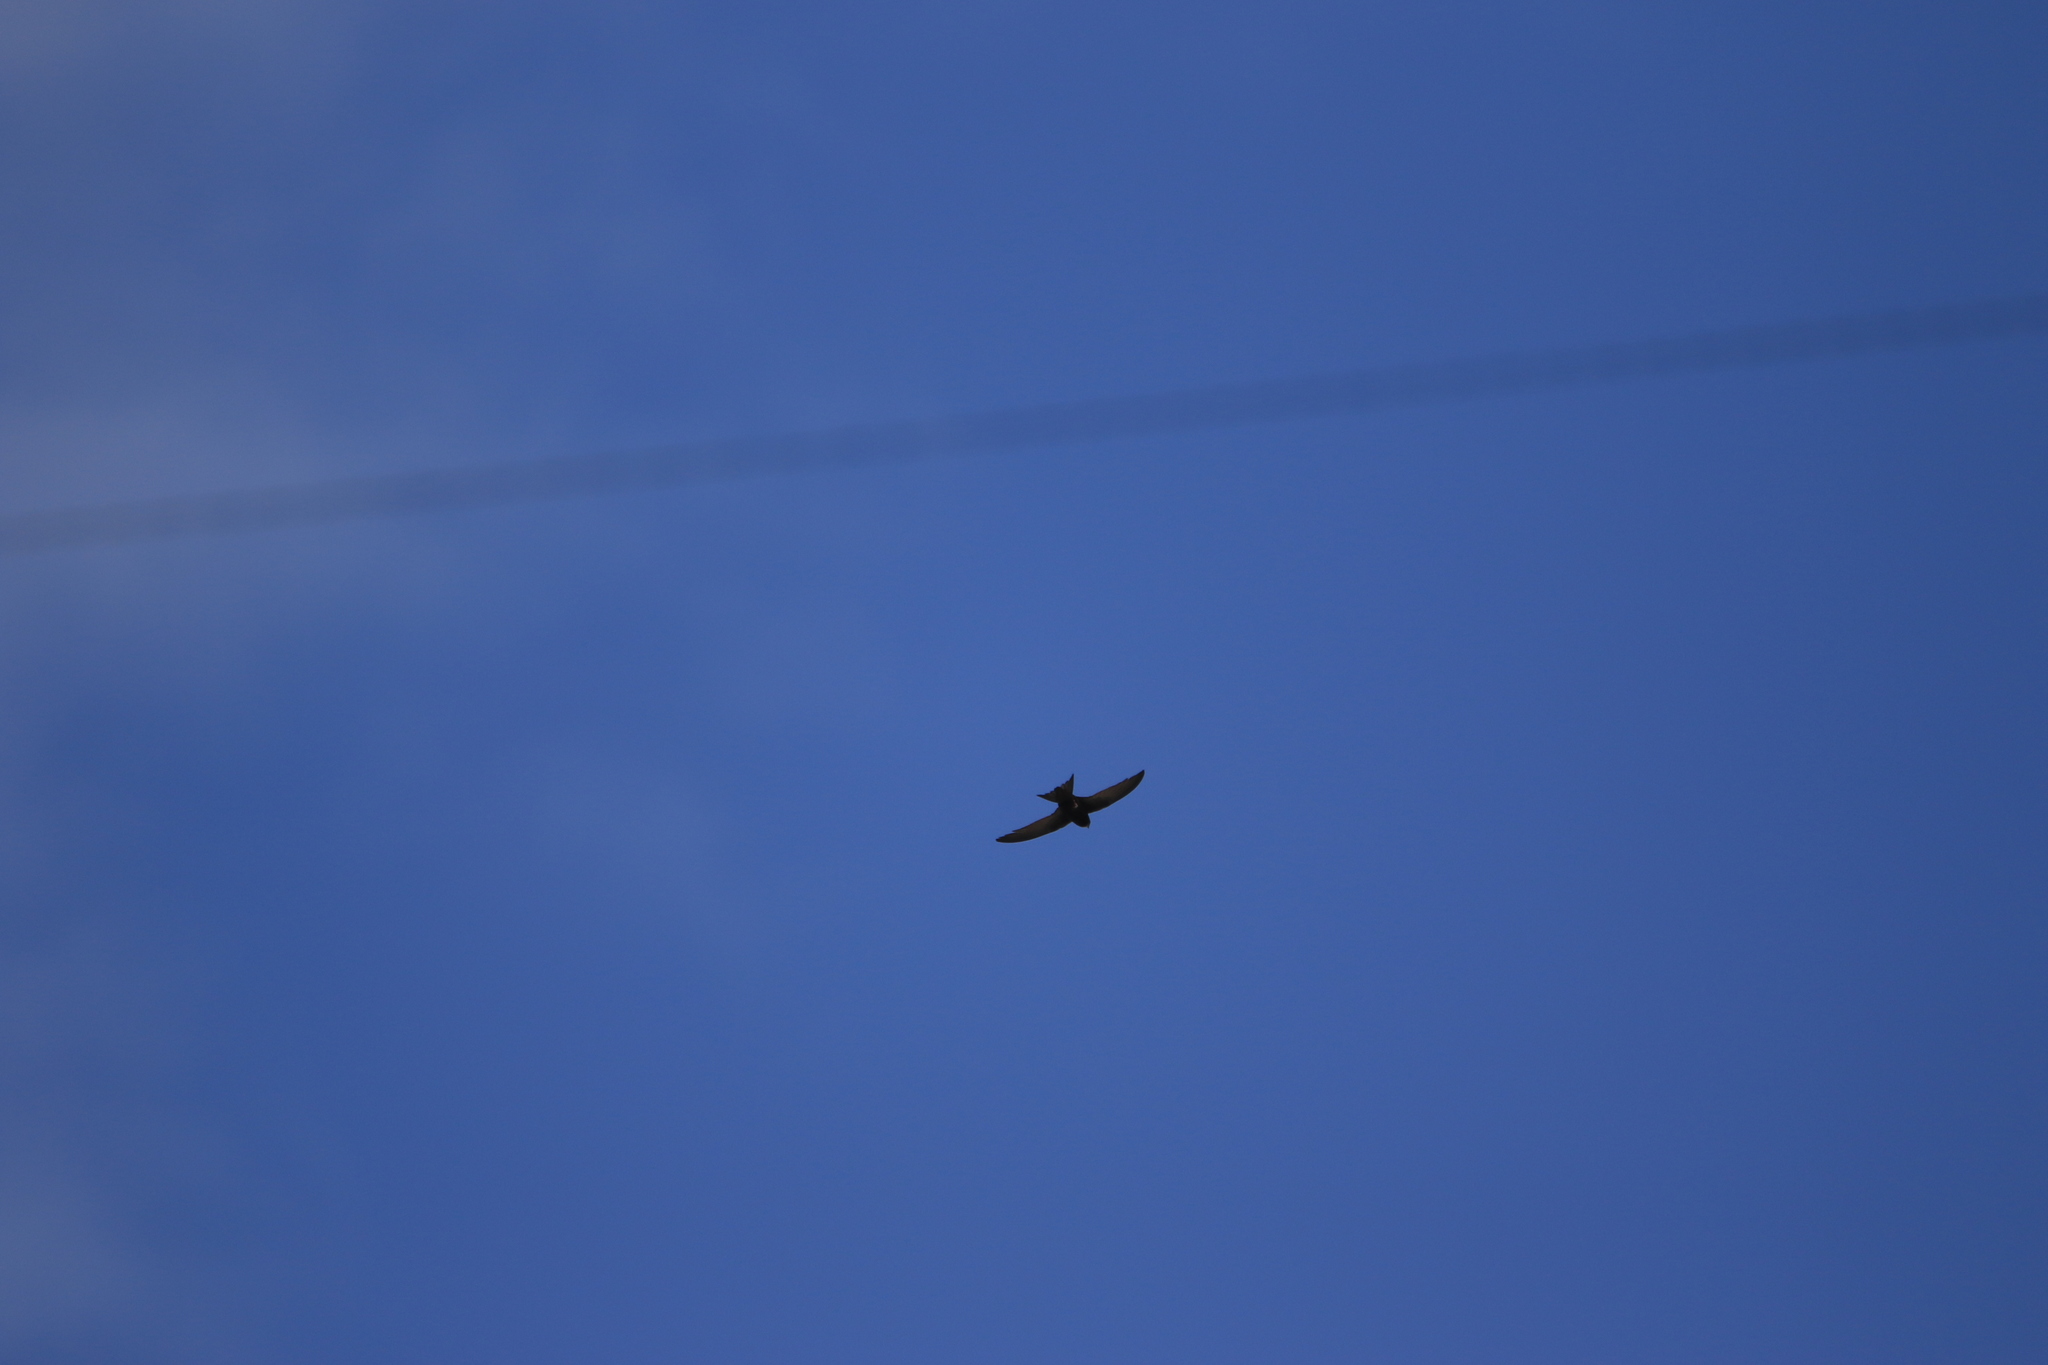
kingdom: Animalia
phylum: Chordata
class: Aves
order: Apodiformes
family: Apodidae
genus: Apus
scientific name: Apus apus
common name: Common swift
